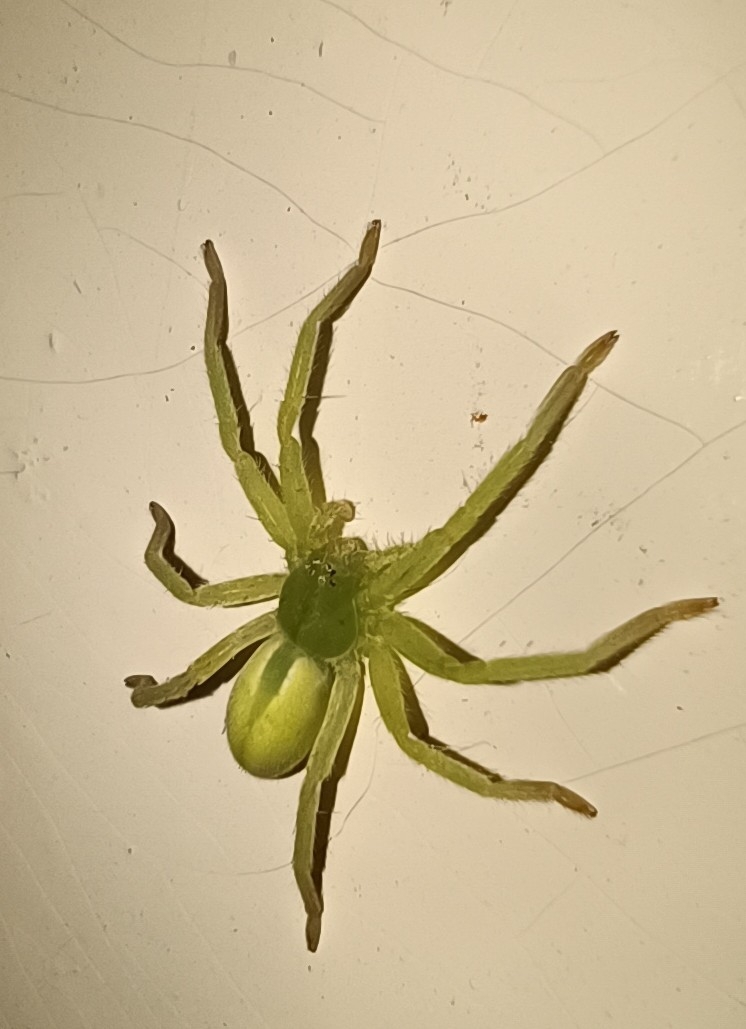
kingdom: Animalia
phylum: Arthropoda
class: Arachnida
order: Araneae
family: Sparassidae
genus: Micrommata
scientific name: Micrommata virescens
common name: Green spider
